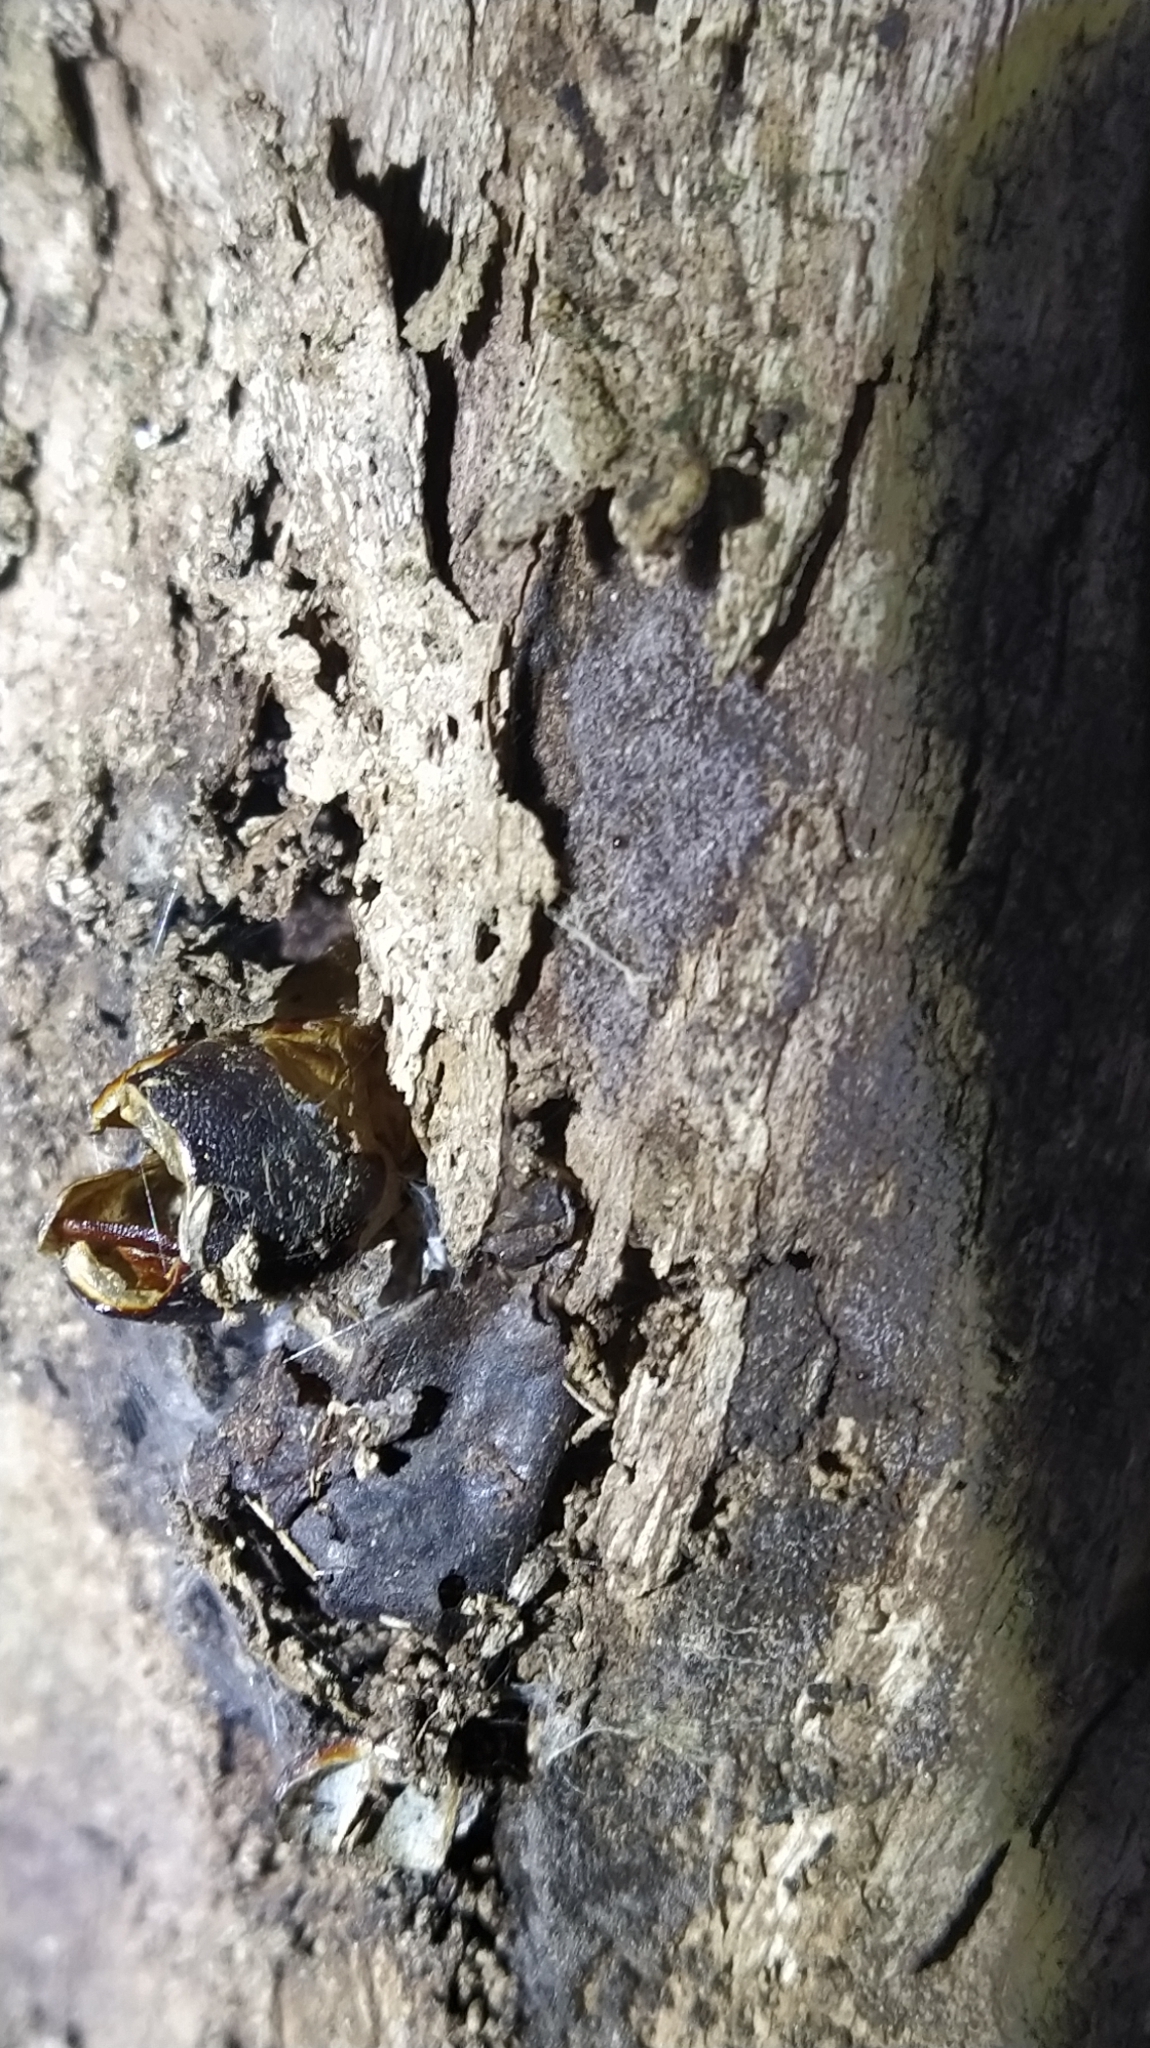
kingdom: Animalia
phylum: Arthropoda
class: Insecta
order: Lepidoptera
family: Hepialidae
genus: Aenetus
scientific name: Aenetus virescens
